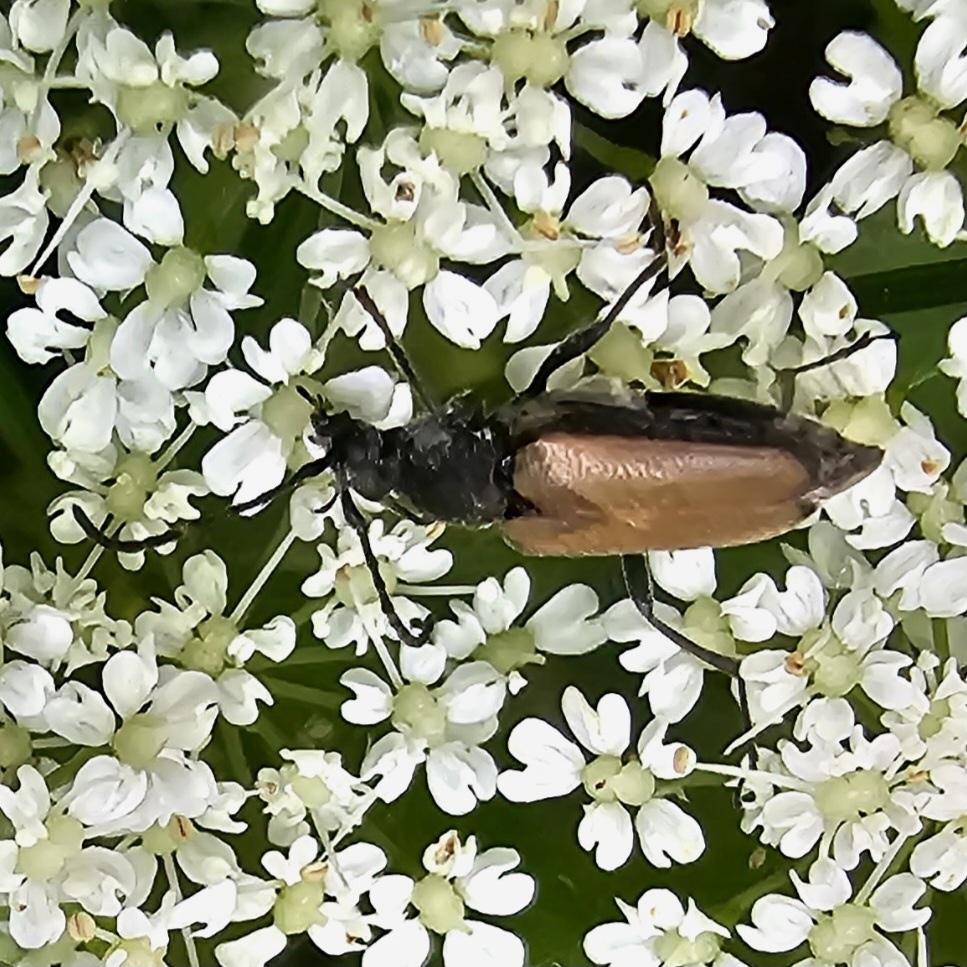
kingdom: Animalia
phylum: Arthropoda
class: Insecta
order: Coleoptera
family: Cerambycidae
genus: Brachyleptura
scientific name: Brachyleptura circumdata
